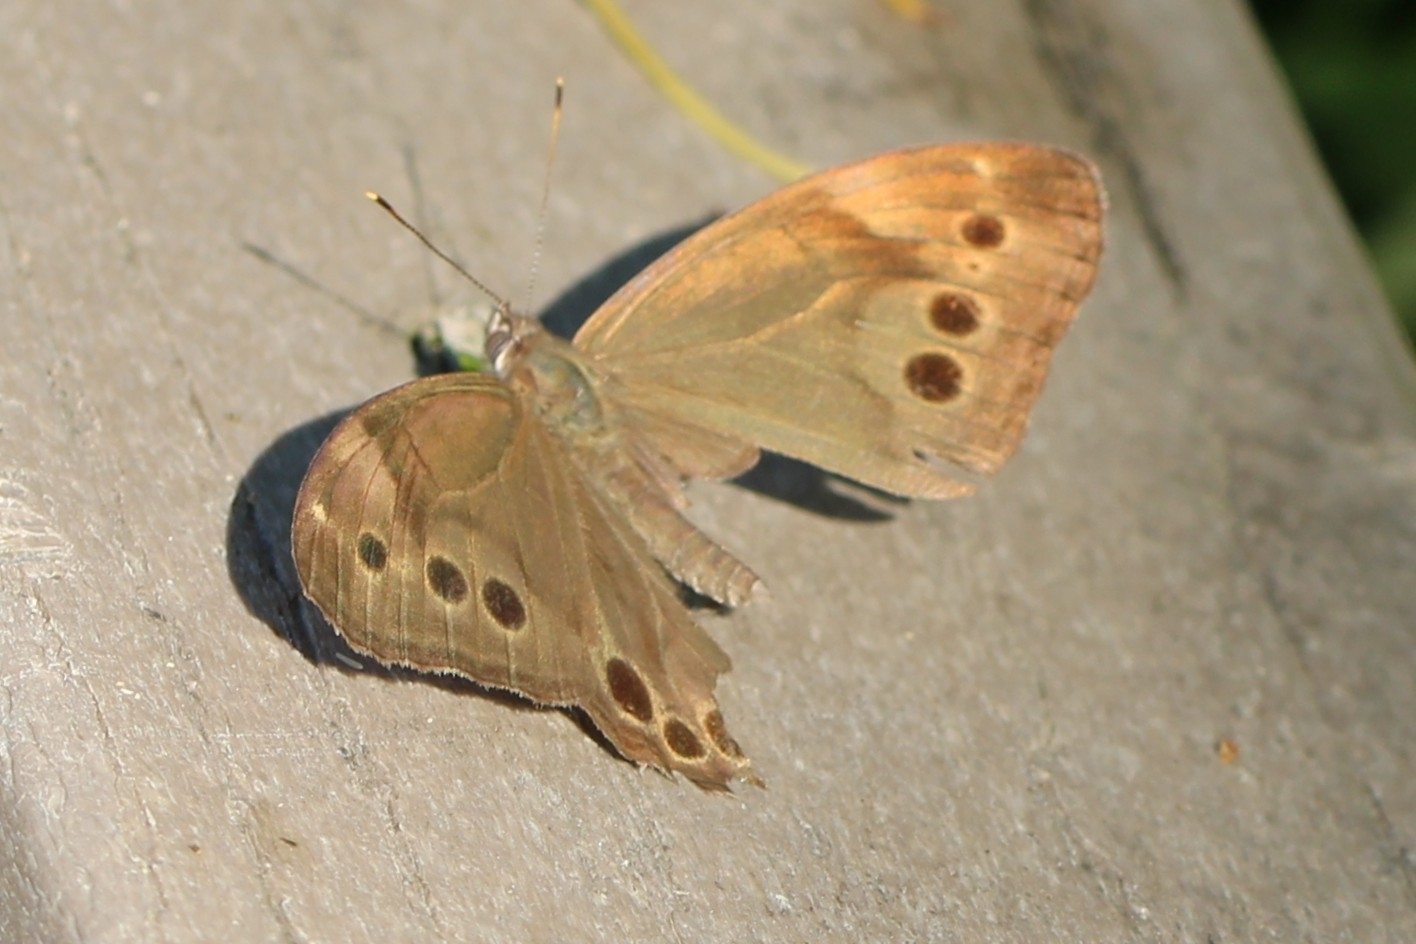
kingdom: Animalia
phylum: Arthropoda
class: Insecta
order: Lepidoptera
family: Nymphalidae
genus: Lethe
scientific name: Lethe anthedon
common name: Northern pearly-eye
